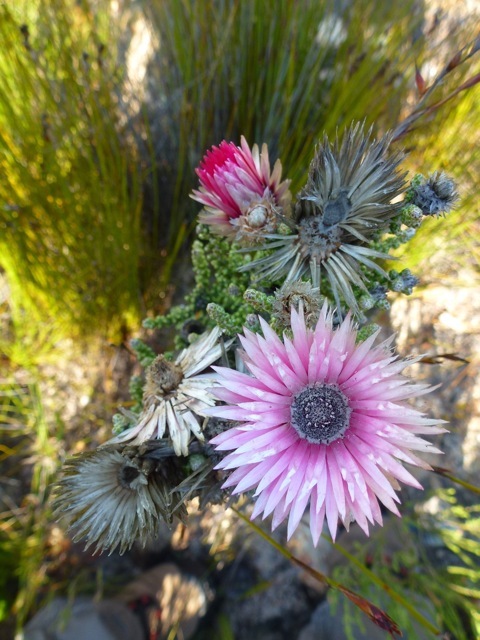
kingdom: Plantae
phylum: Tracheophyta
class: Magnoliopsida
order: Asterales
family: Asteraceae
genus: Phaenocoma
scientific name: Phaenocoma prolifera
